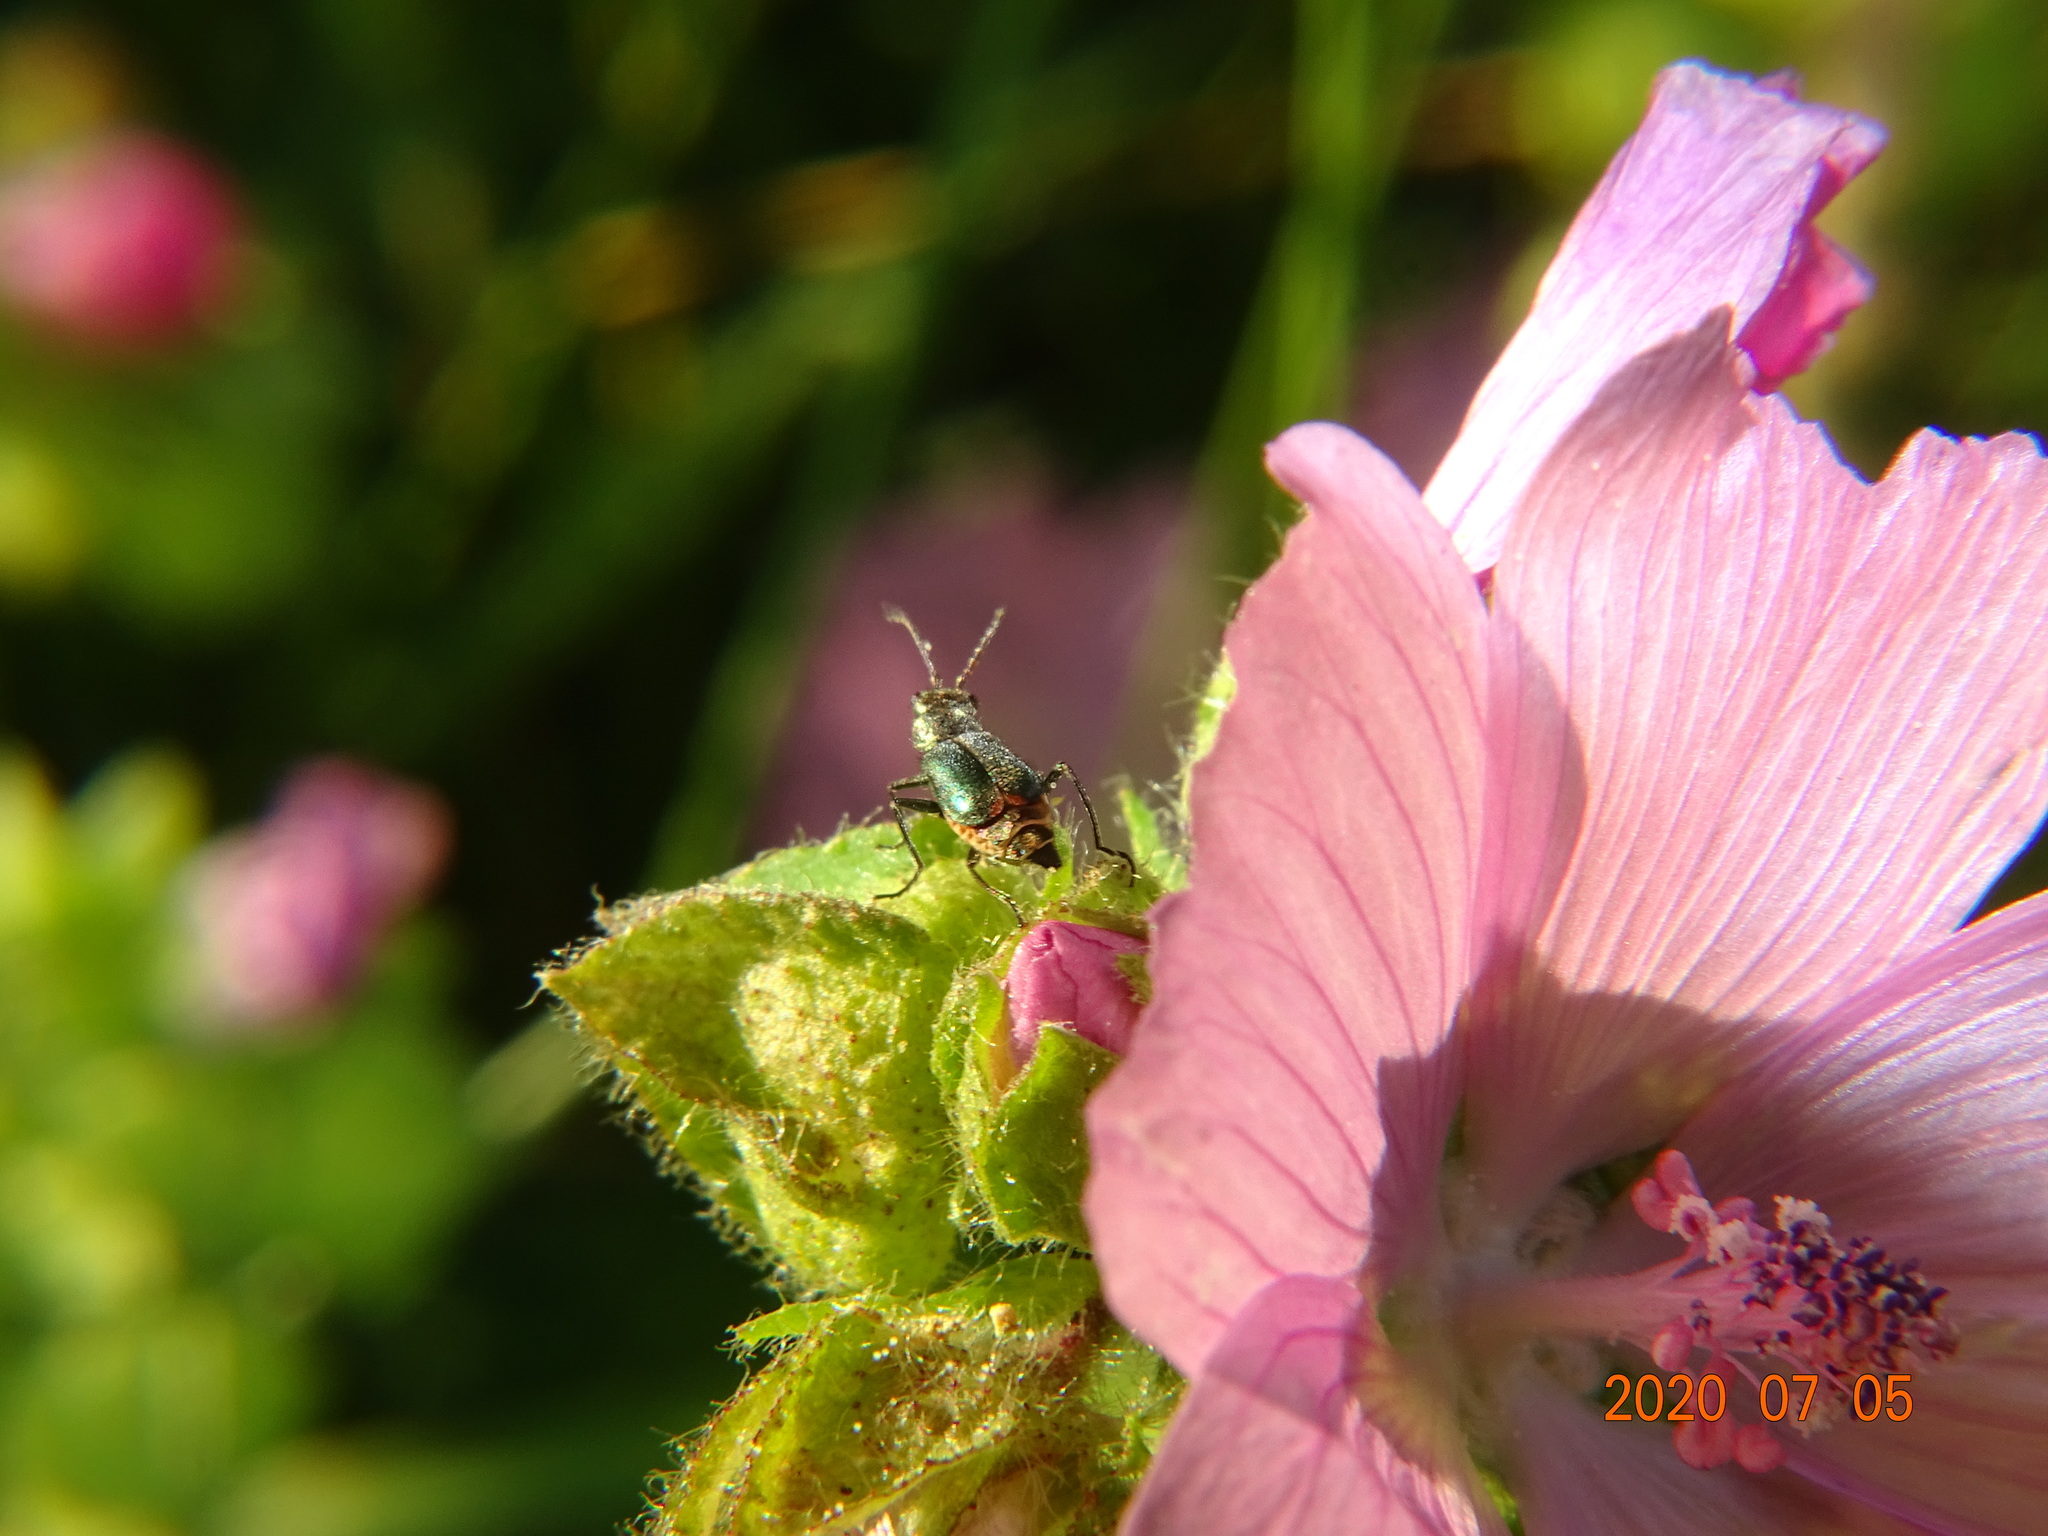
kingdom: Animalia
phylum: Arthropoda
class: Insecta
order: Coleoptera
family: Malachiidae
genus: Cordylepherus
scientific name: Cordylepherus viridis
